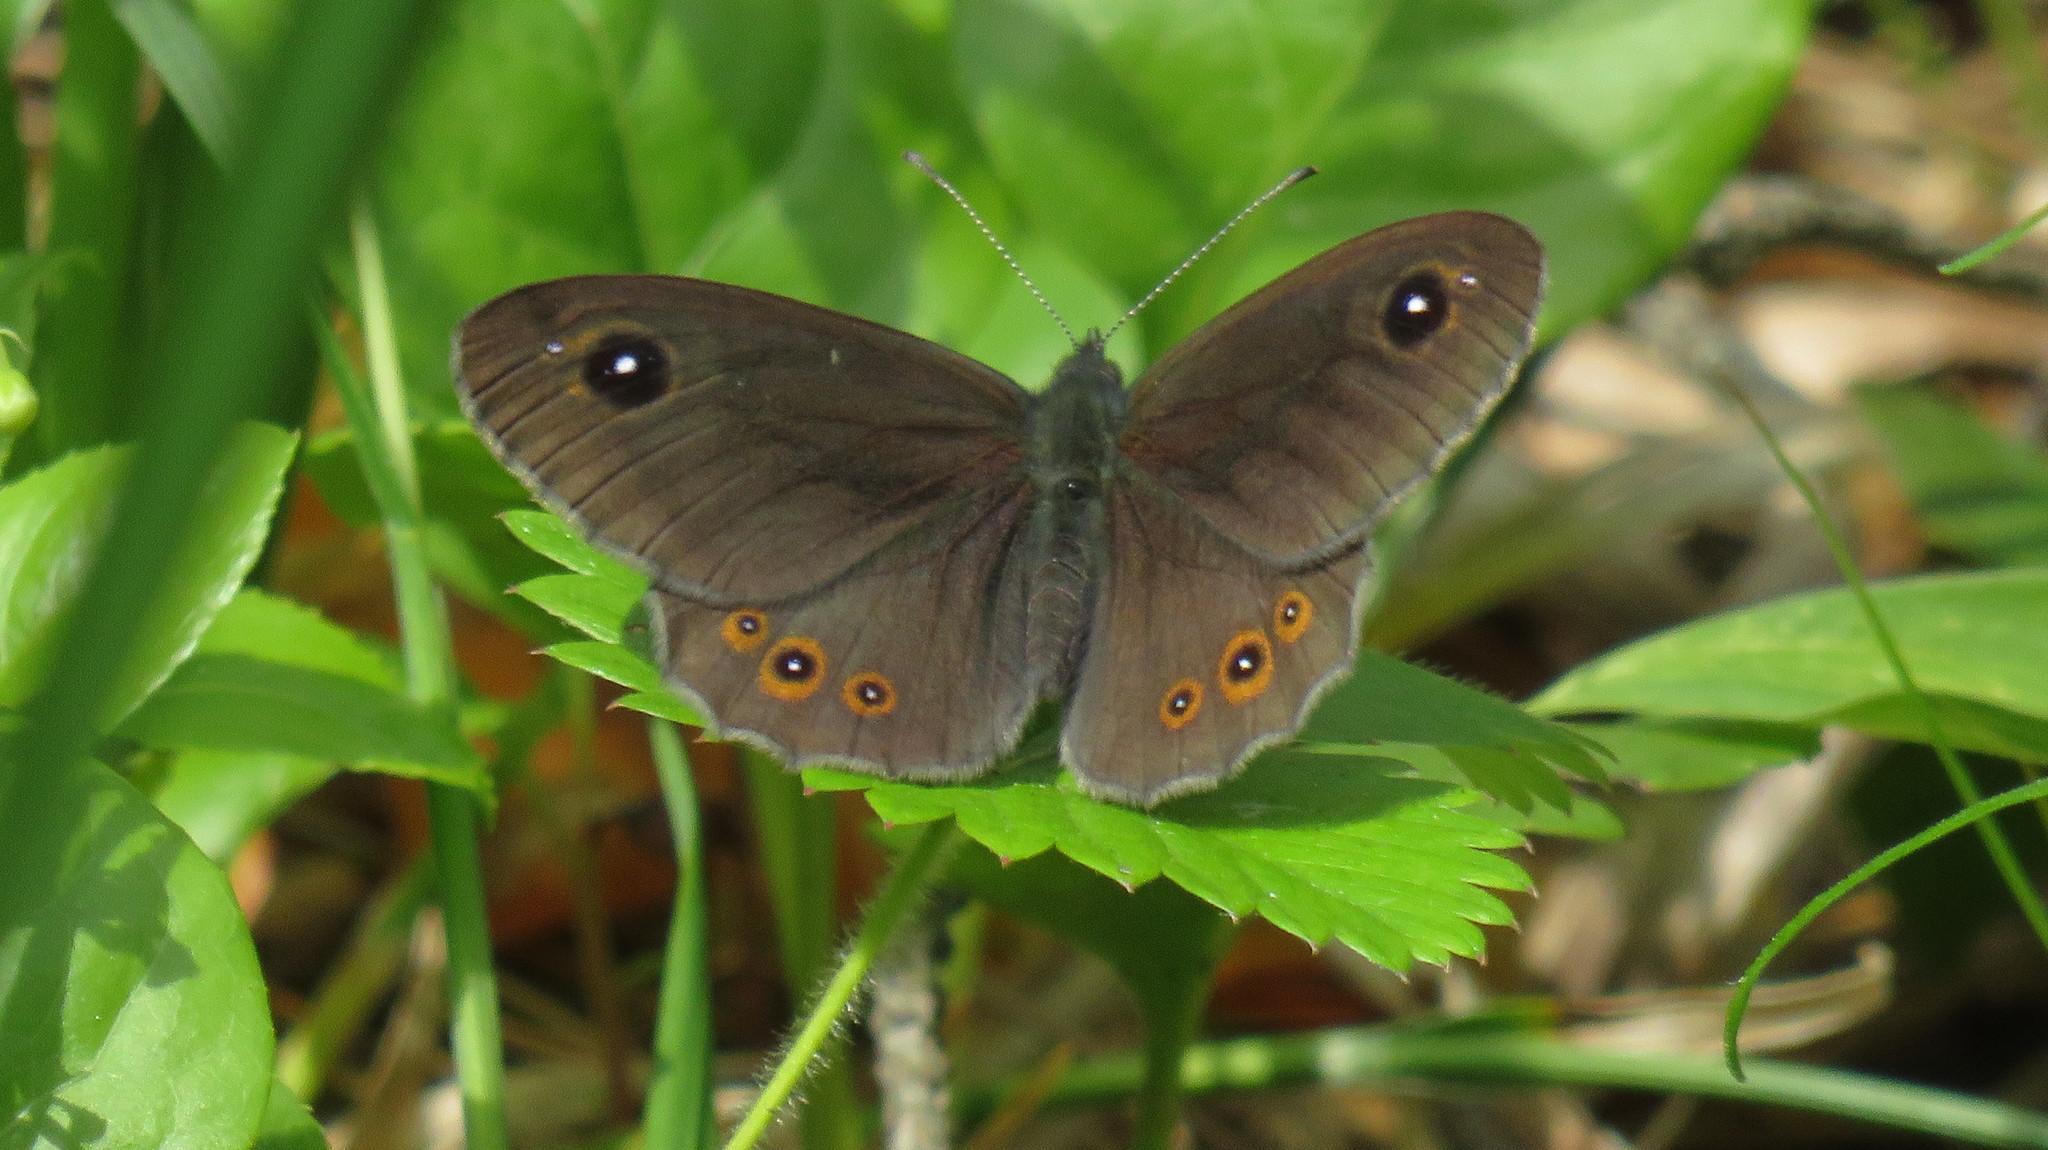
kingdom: Animalia
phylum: Arthropoda
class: Insecta
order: Lepidoptera
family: Nymphalidae
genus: Pararge
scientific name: Pararge Lasiommata maera
